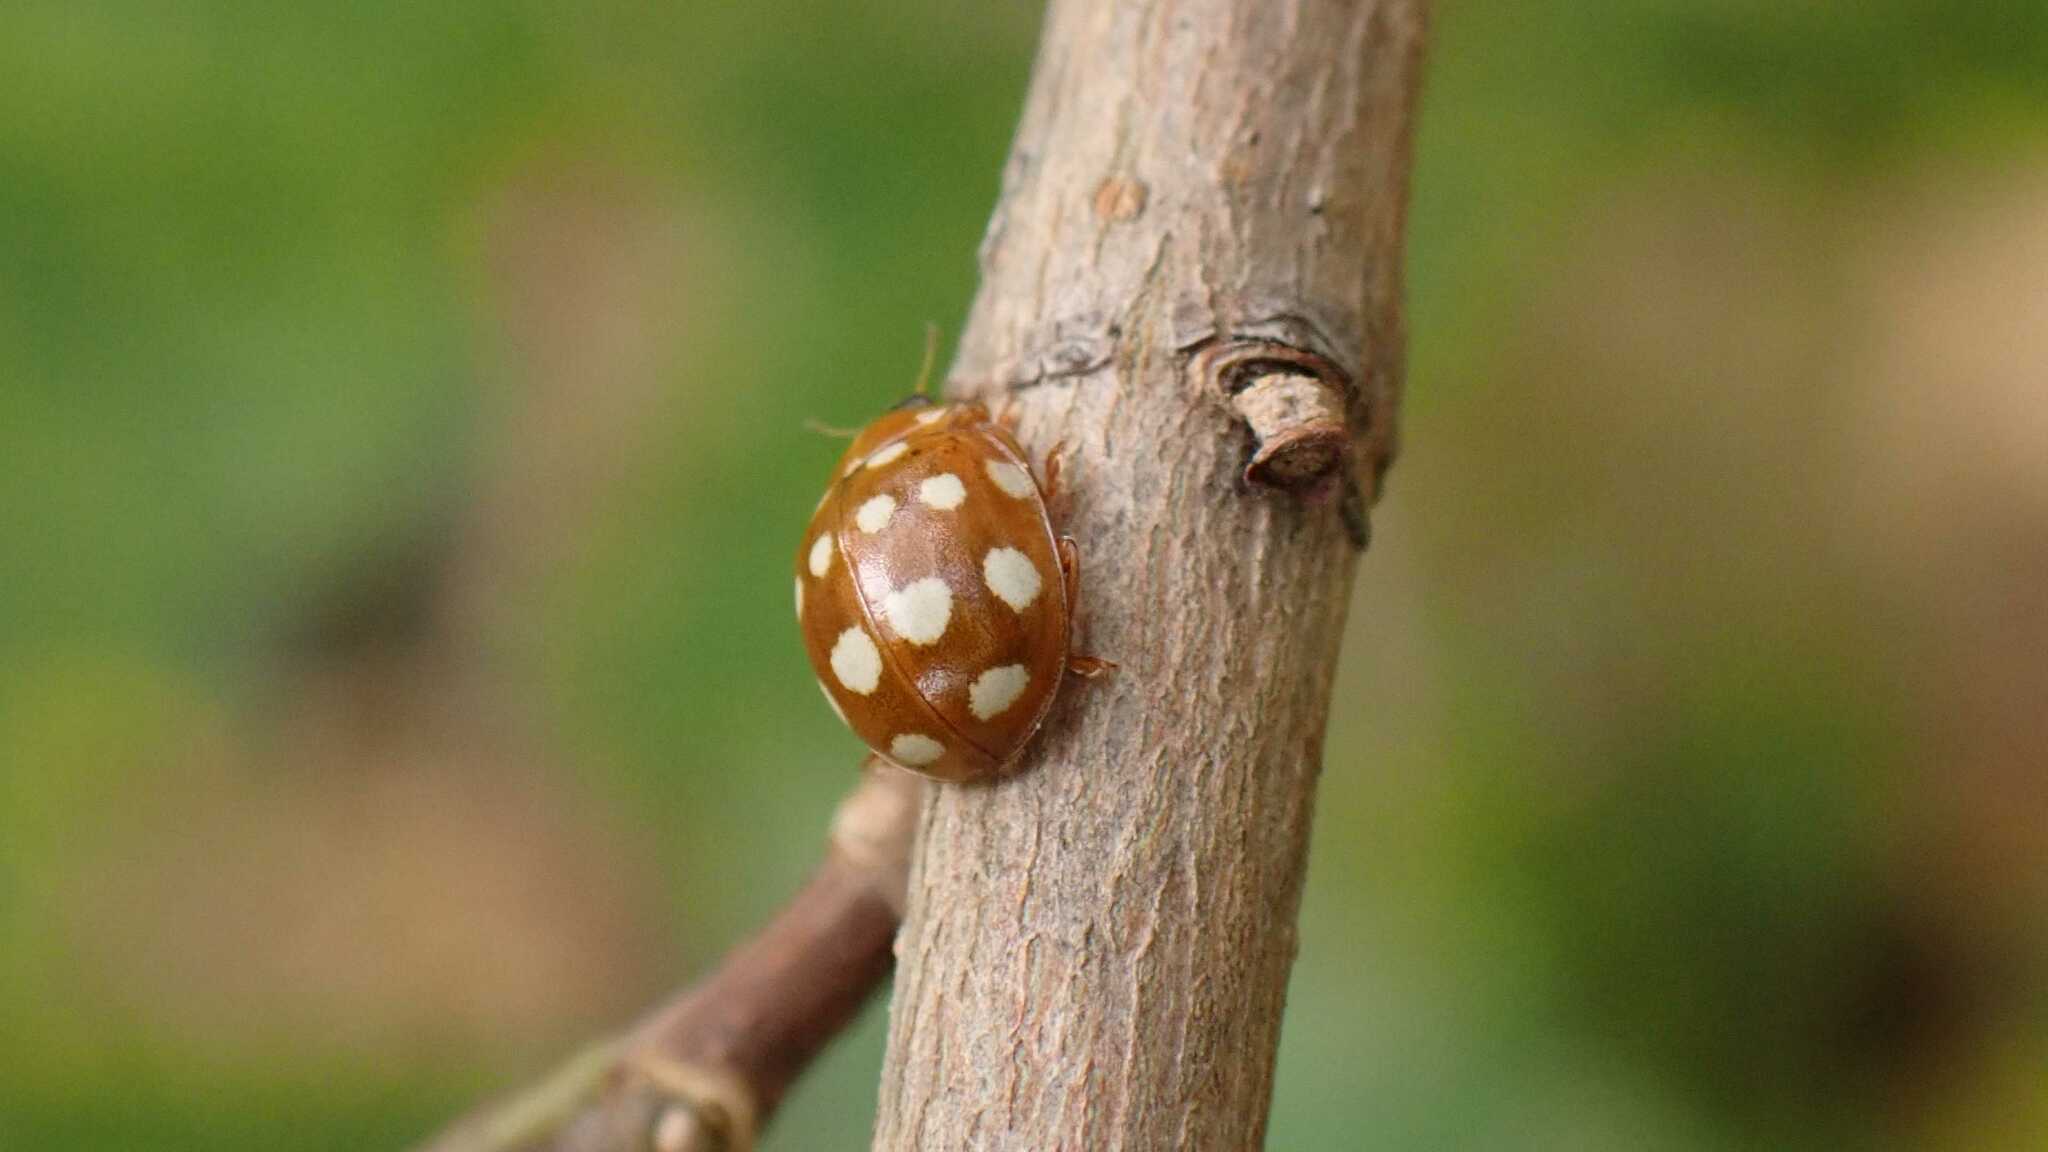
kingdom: Animalia
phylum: Arthropoda
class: Insecta
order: Coleoptera
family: Coccinellidae
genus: Calvia
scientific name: Calvia quatuordecimguttata
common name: Cream-spot ladybird
